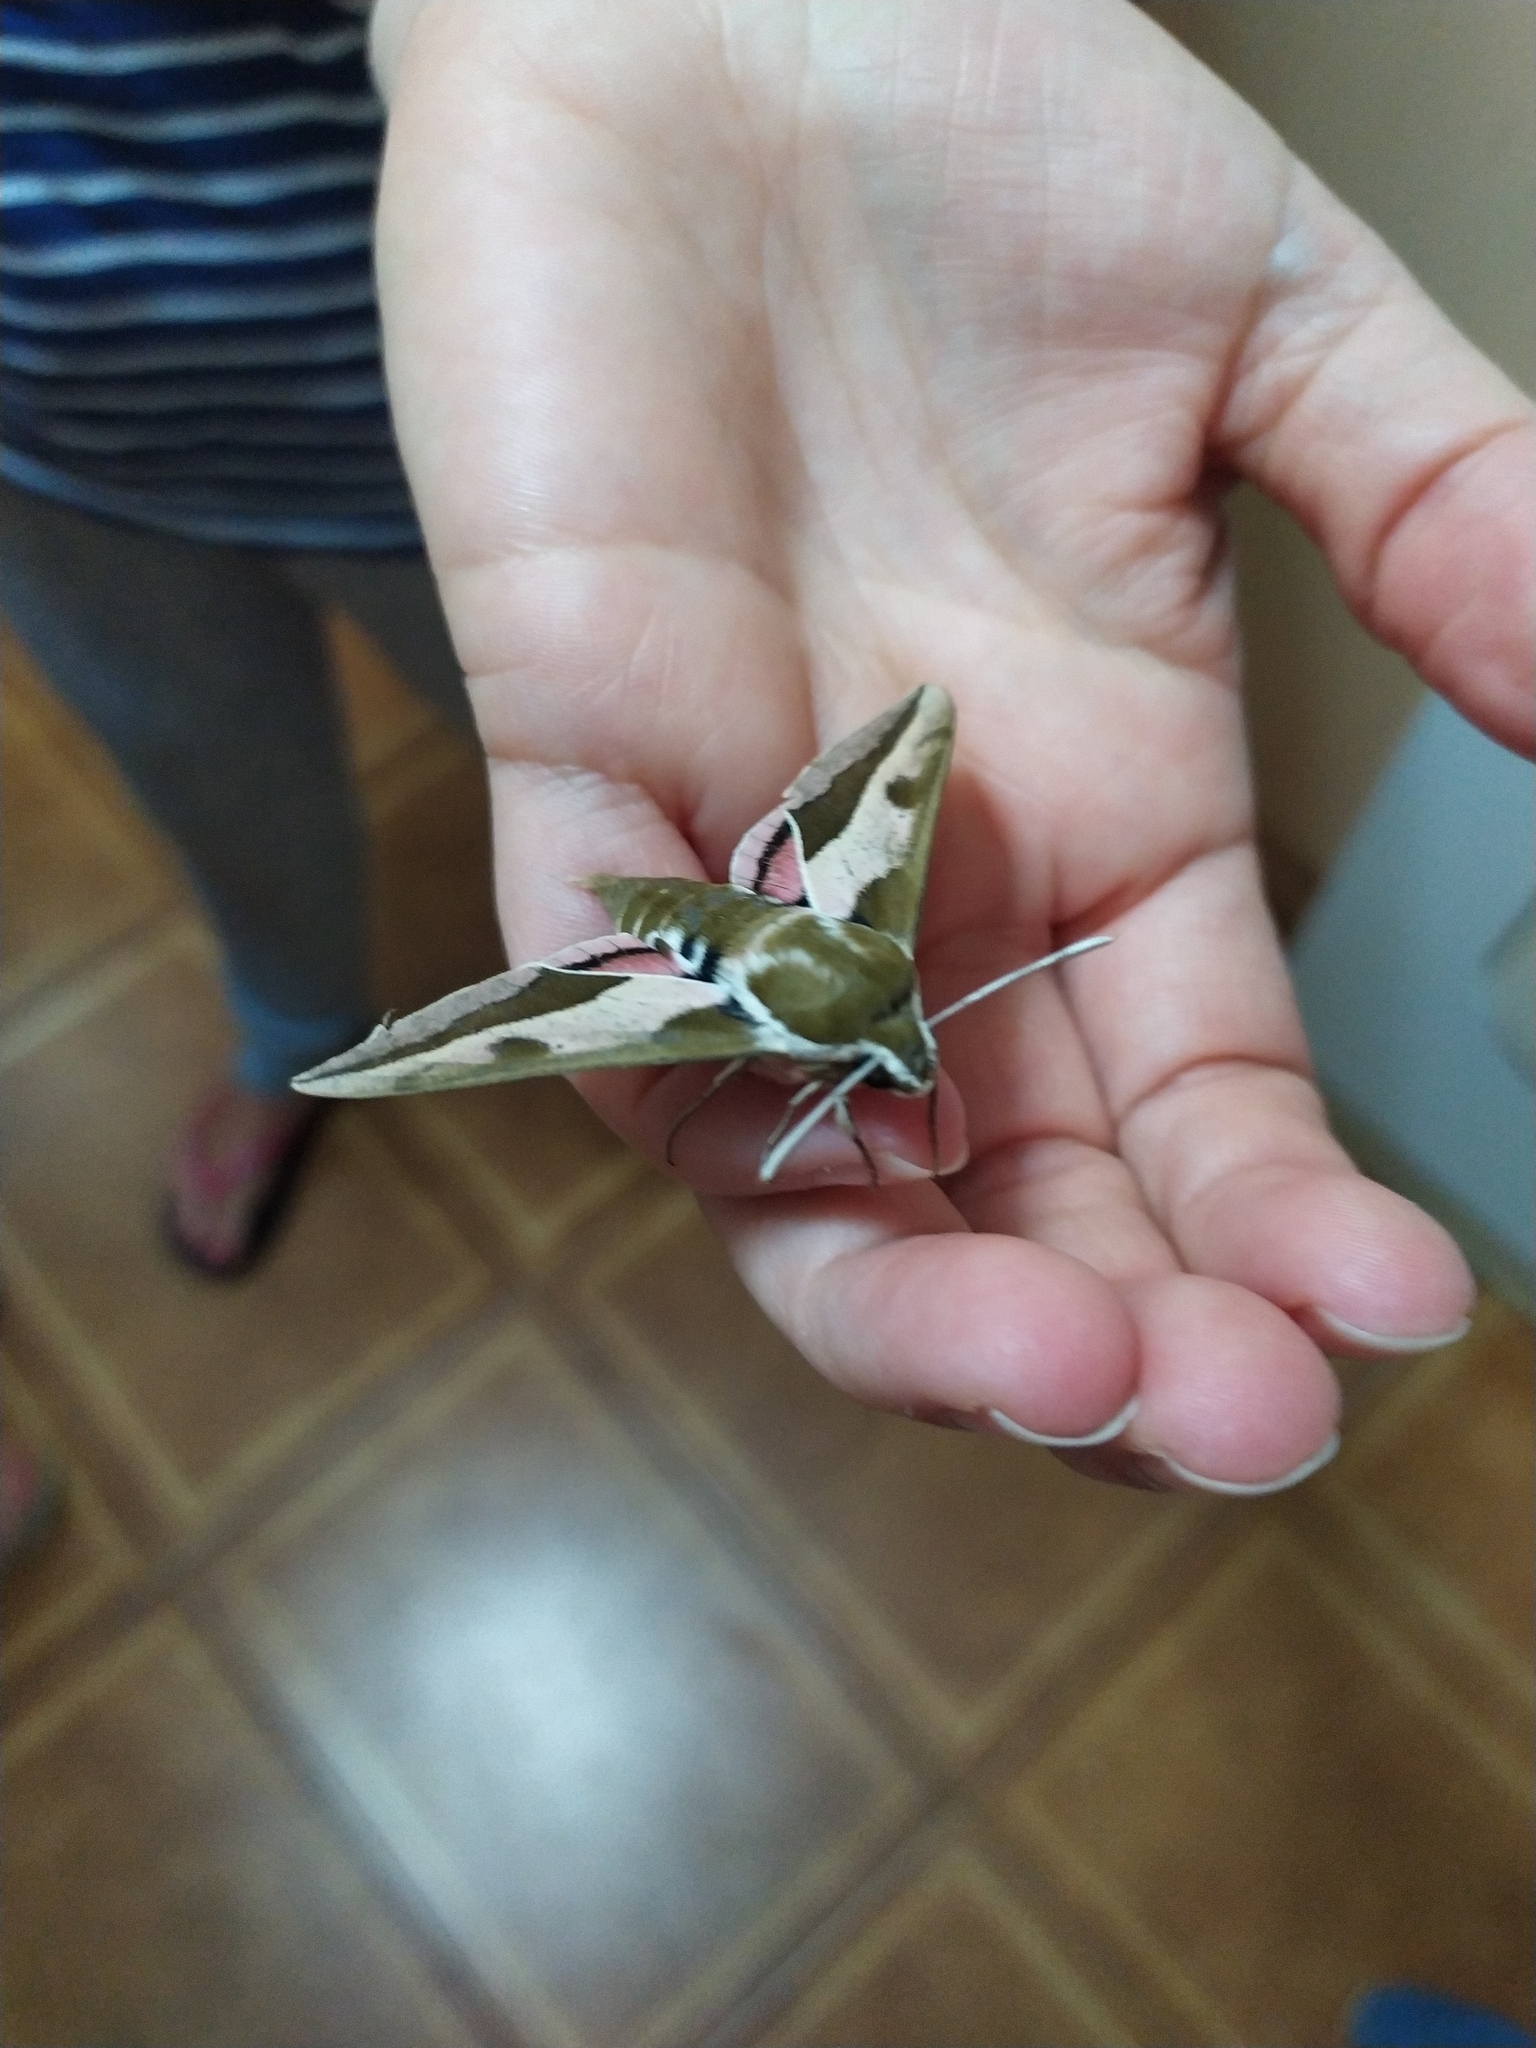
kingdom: Animalia
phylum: Arthropoda
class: Insecta
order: Lepidoptera
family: Sphingidae
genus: Hyles
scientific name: Hyles euphorbiae
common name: Spurge hawk-moth
